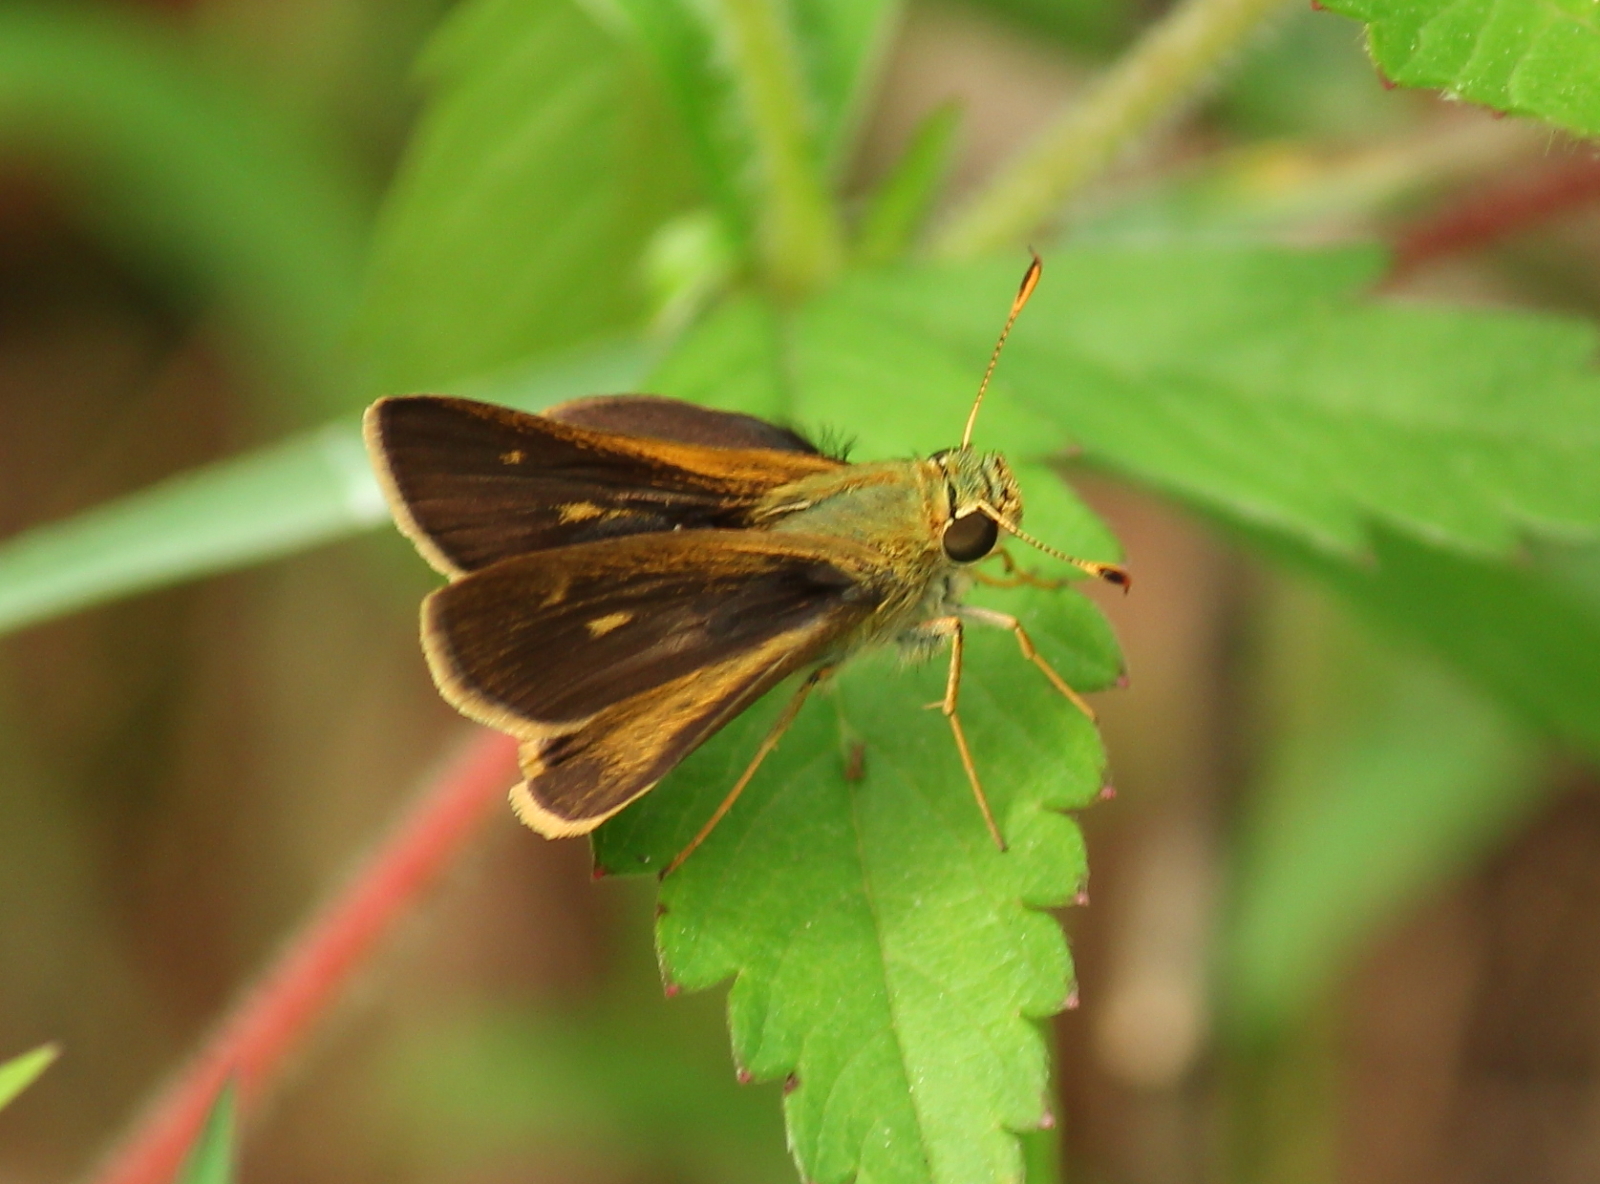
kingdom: Animalia
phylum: Arthropoda
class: Insecta
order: Lepidoptera
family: Hesperiidae
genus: Polites
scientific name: Polites egeremet
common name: Northern broken-dash
